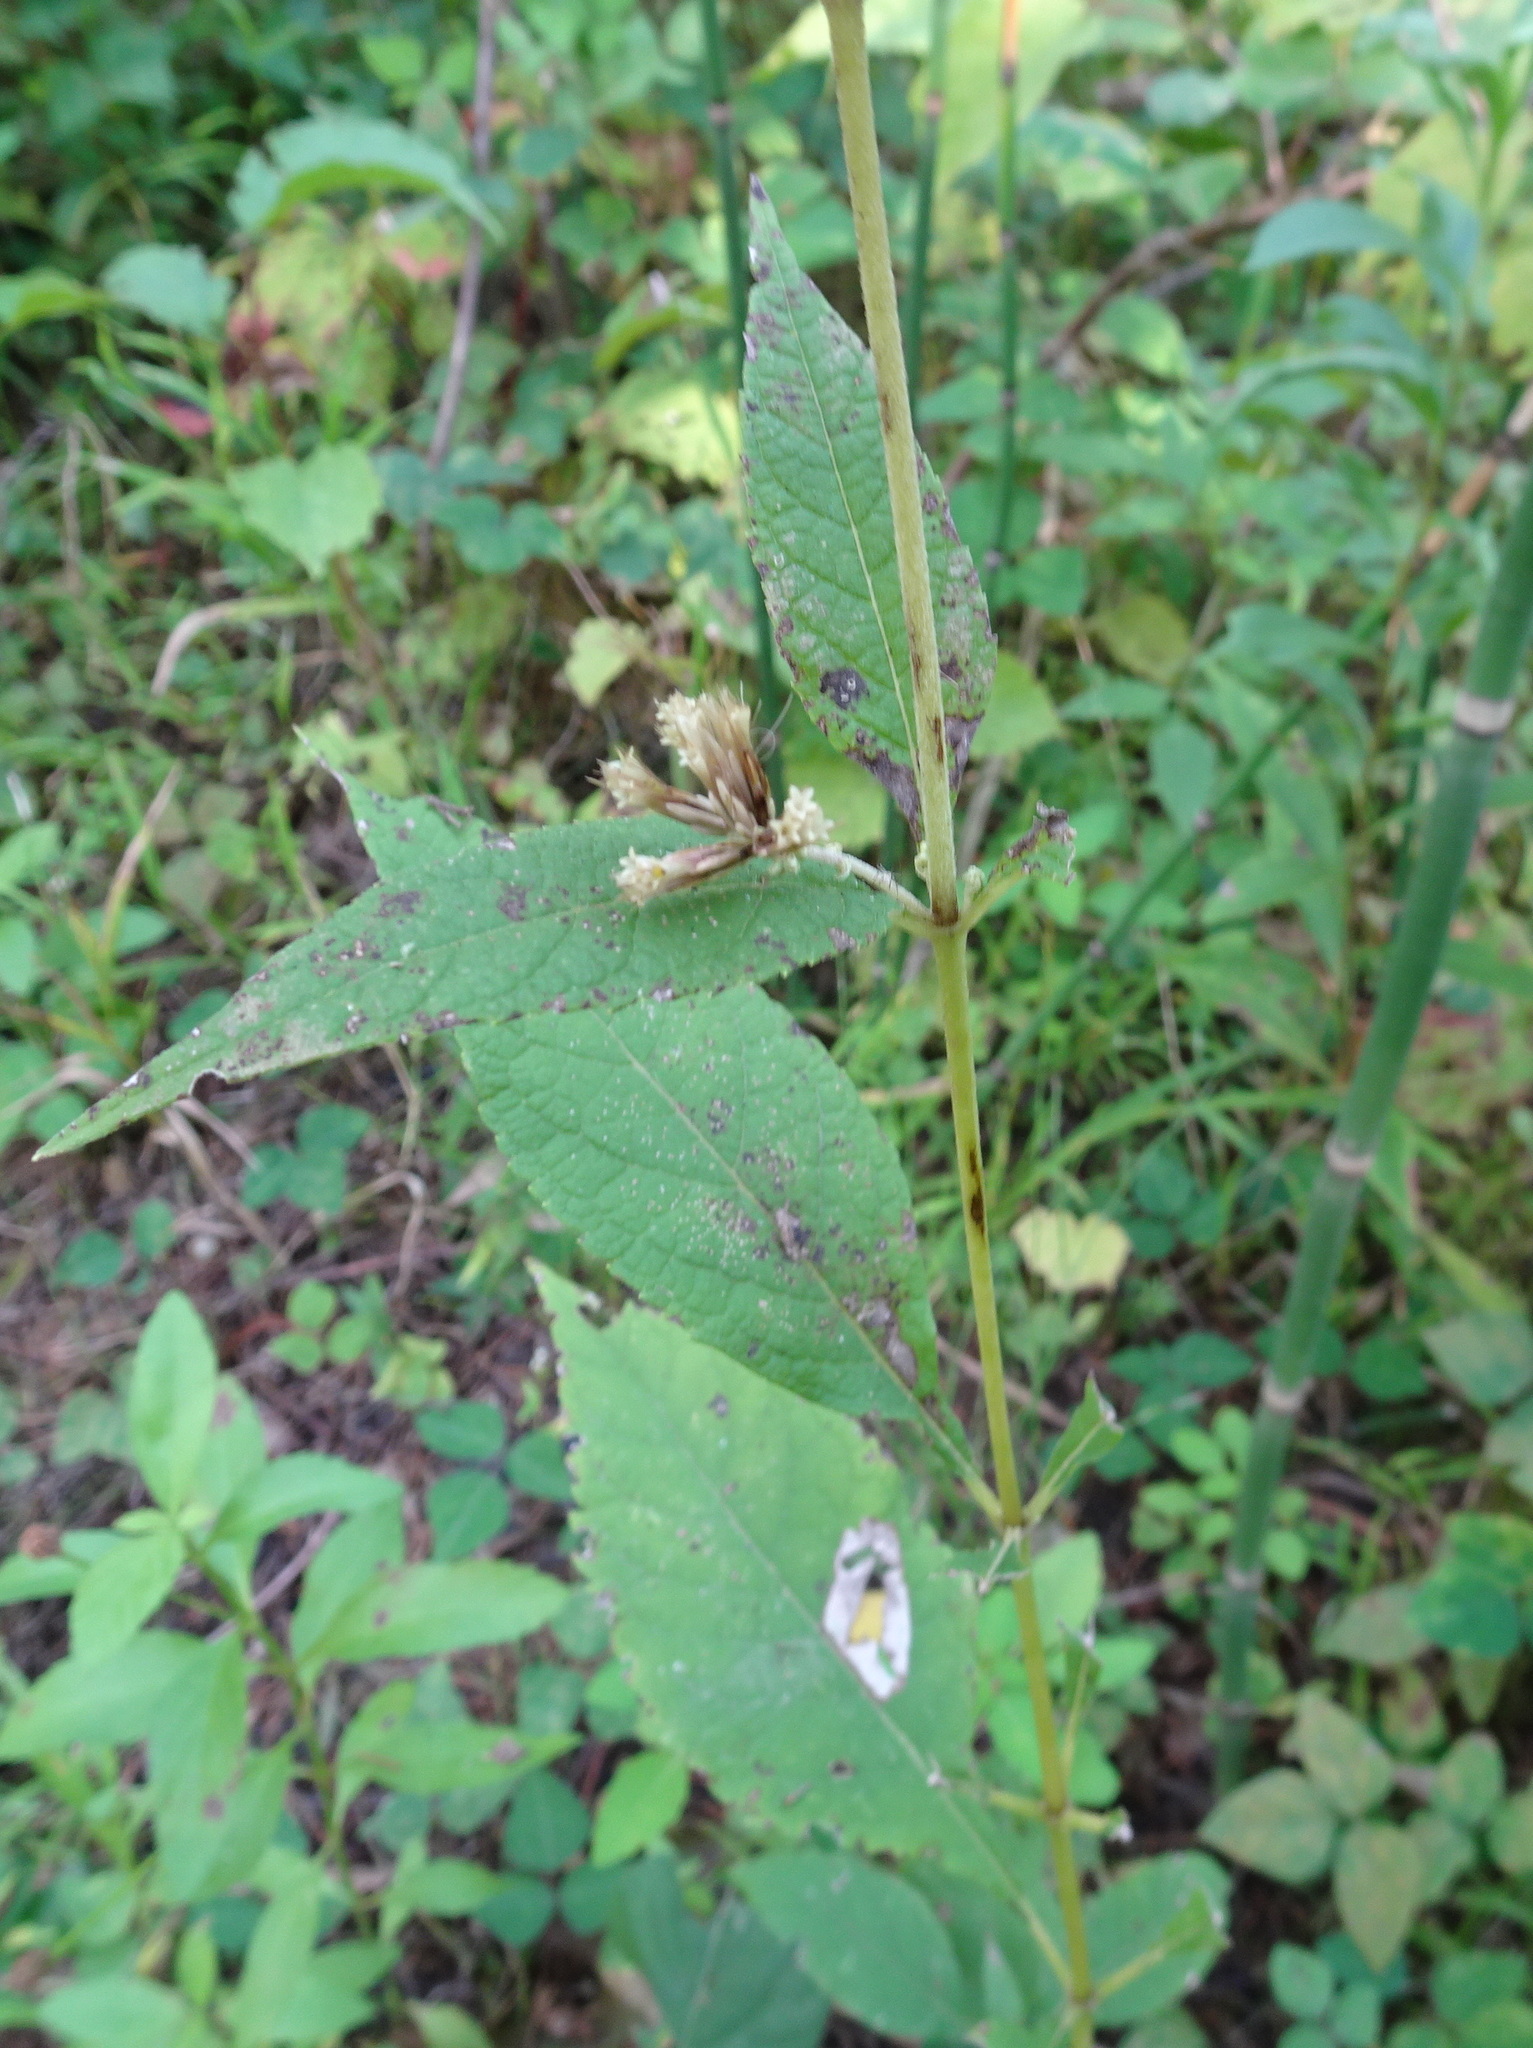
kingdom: Plantae
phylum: Tracheophyta
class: Magnoliopsida
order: Asterales
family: Asteraceae
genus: Eutrochium
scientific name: Eutrochium purpureum
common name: Gravelroot
